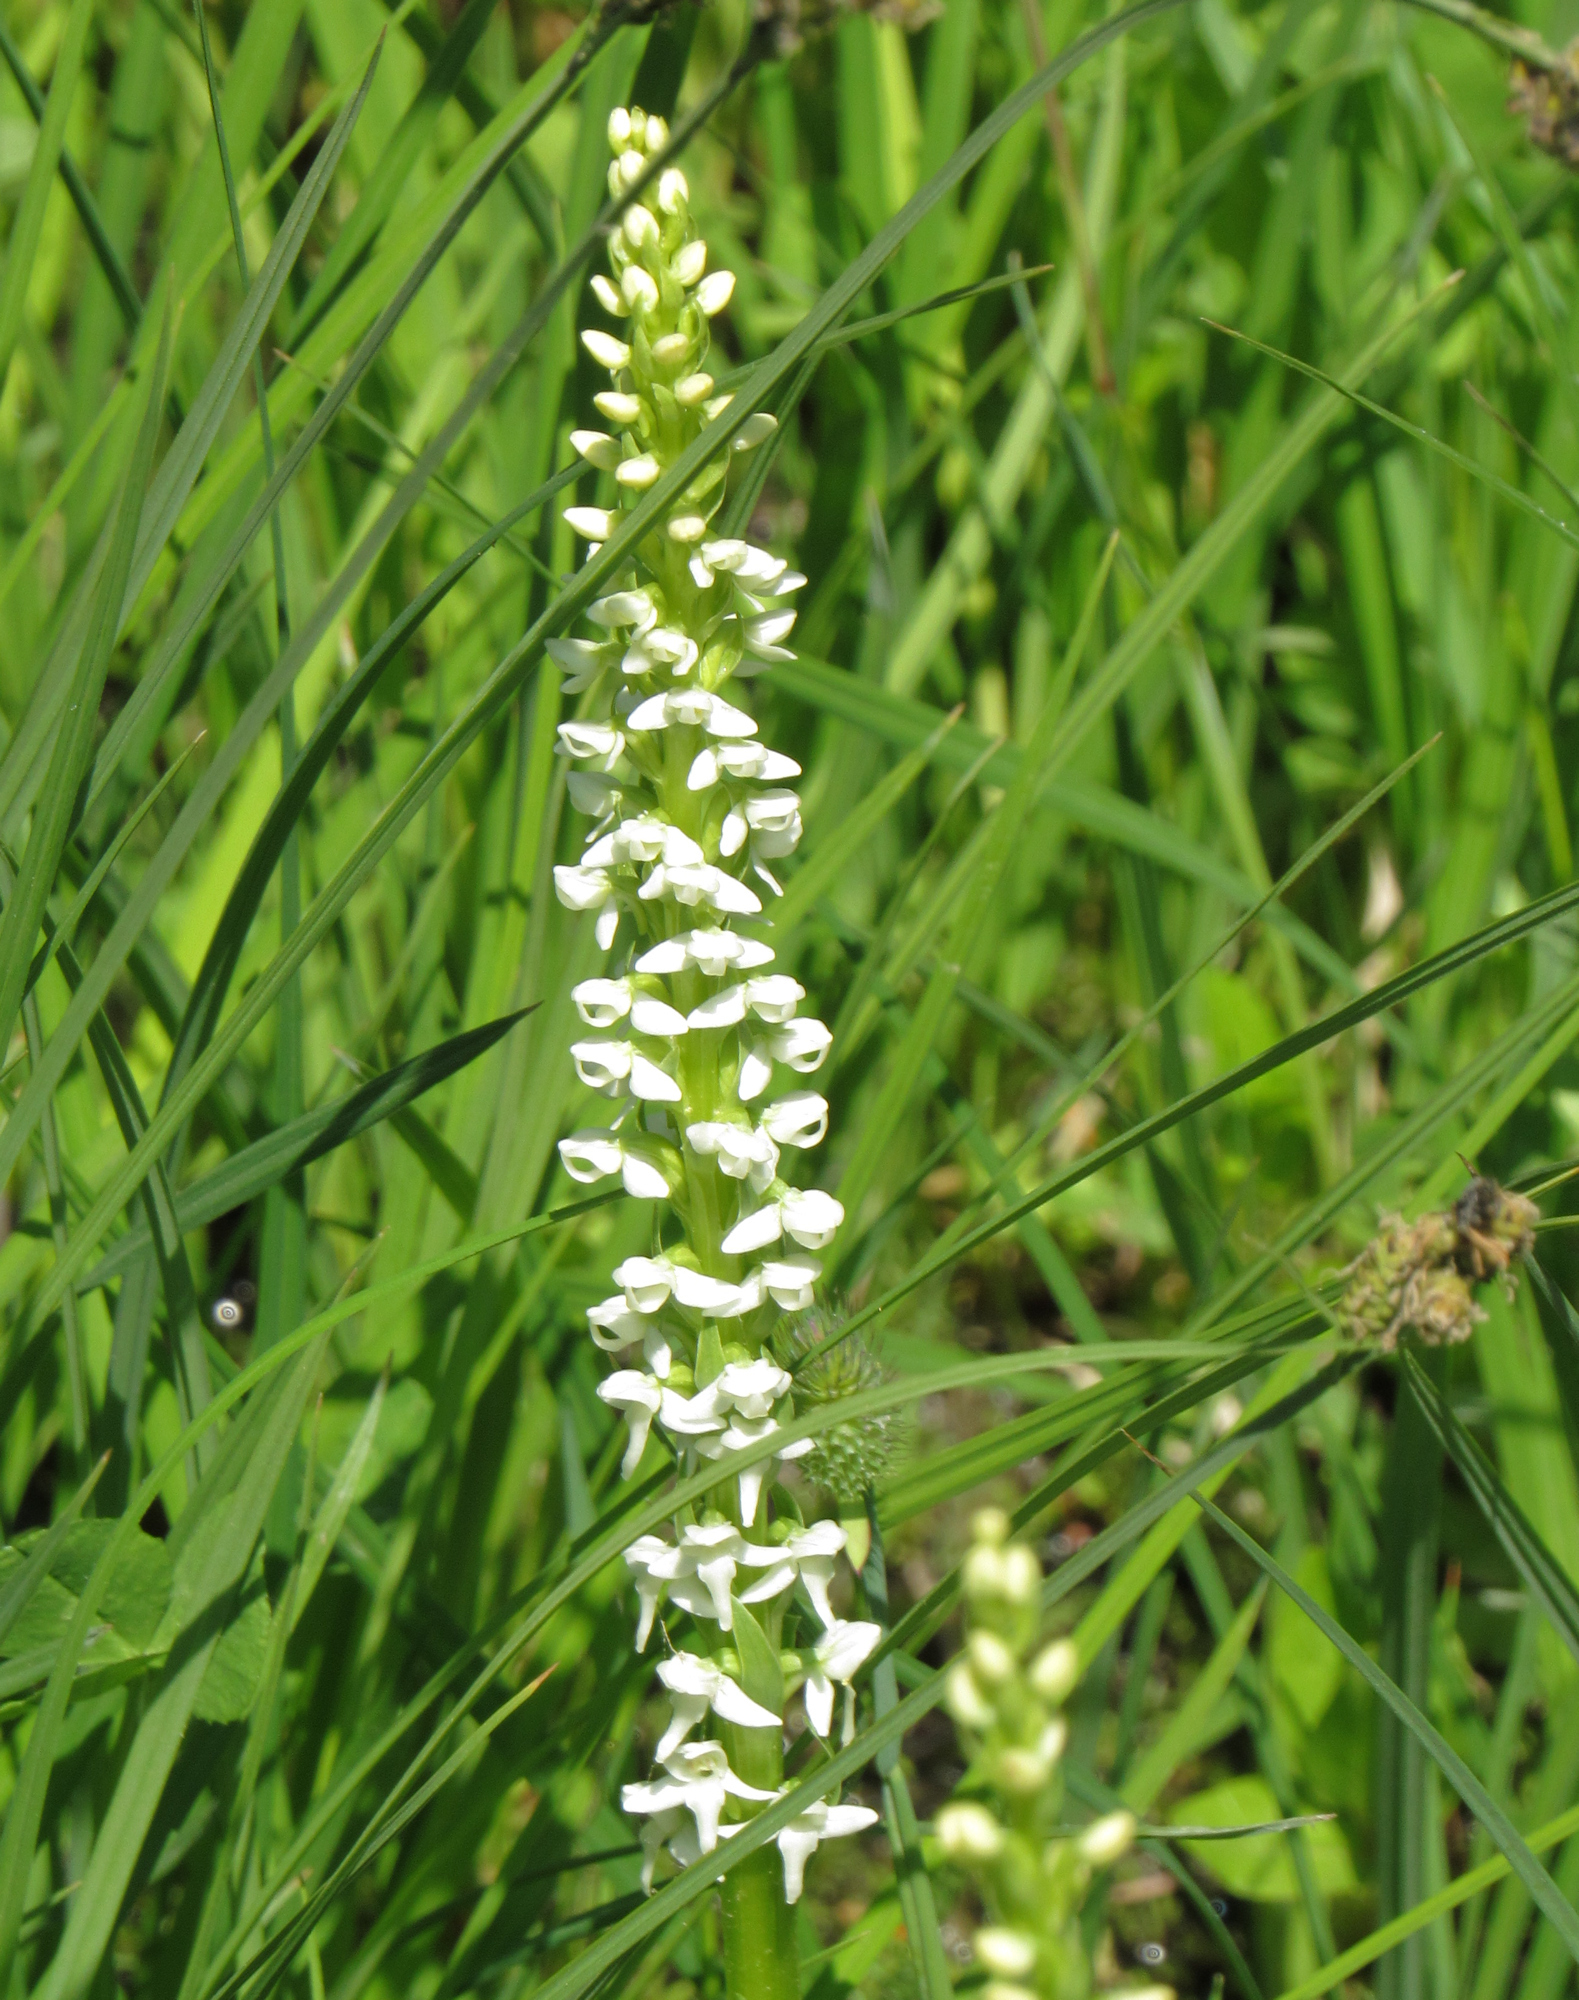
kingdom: Plantae
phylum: Tracheophyta
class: Liliopsida
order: Asparagales
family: Orchidaceae
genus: Platanthera
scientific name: Platanthera dilatata
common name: Bog candles
